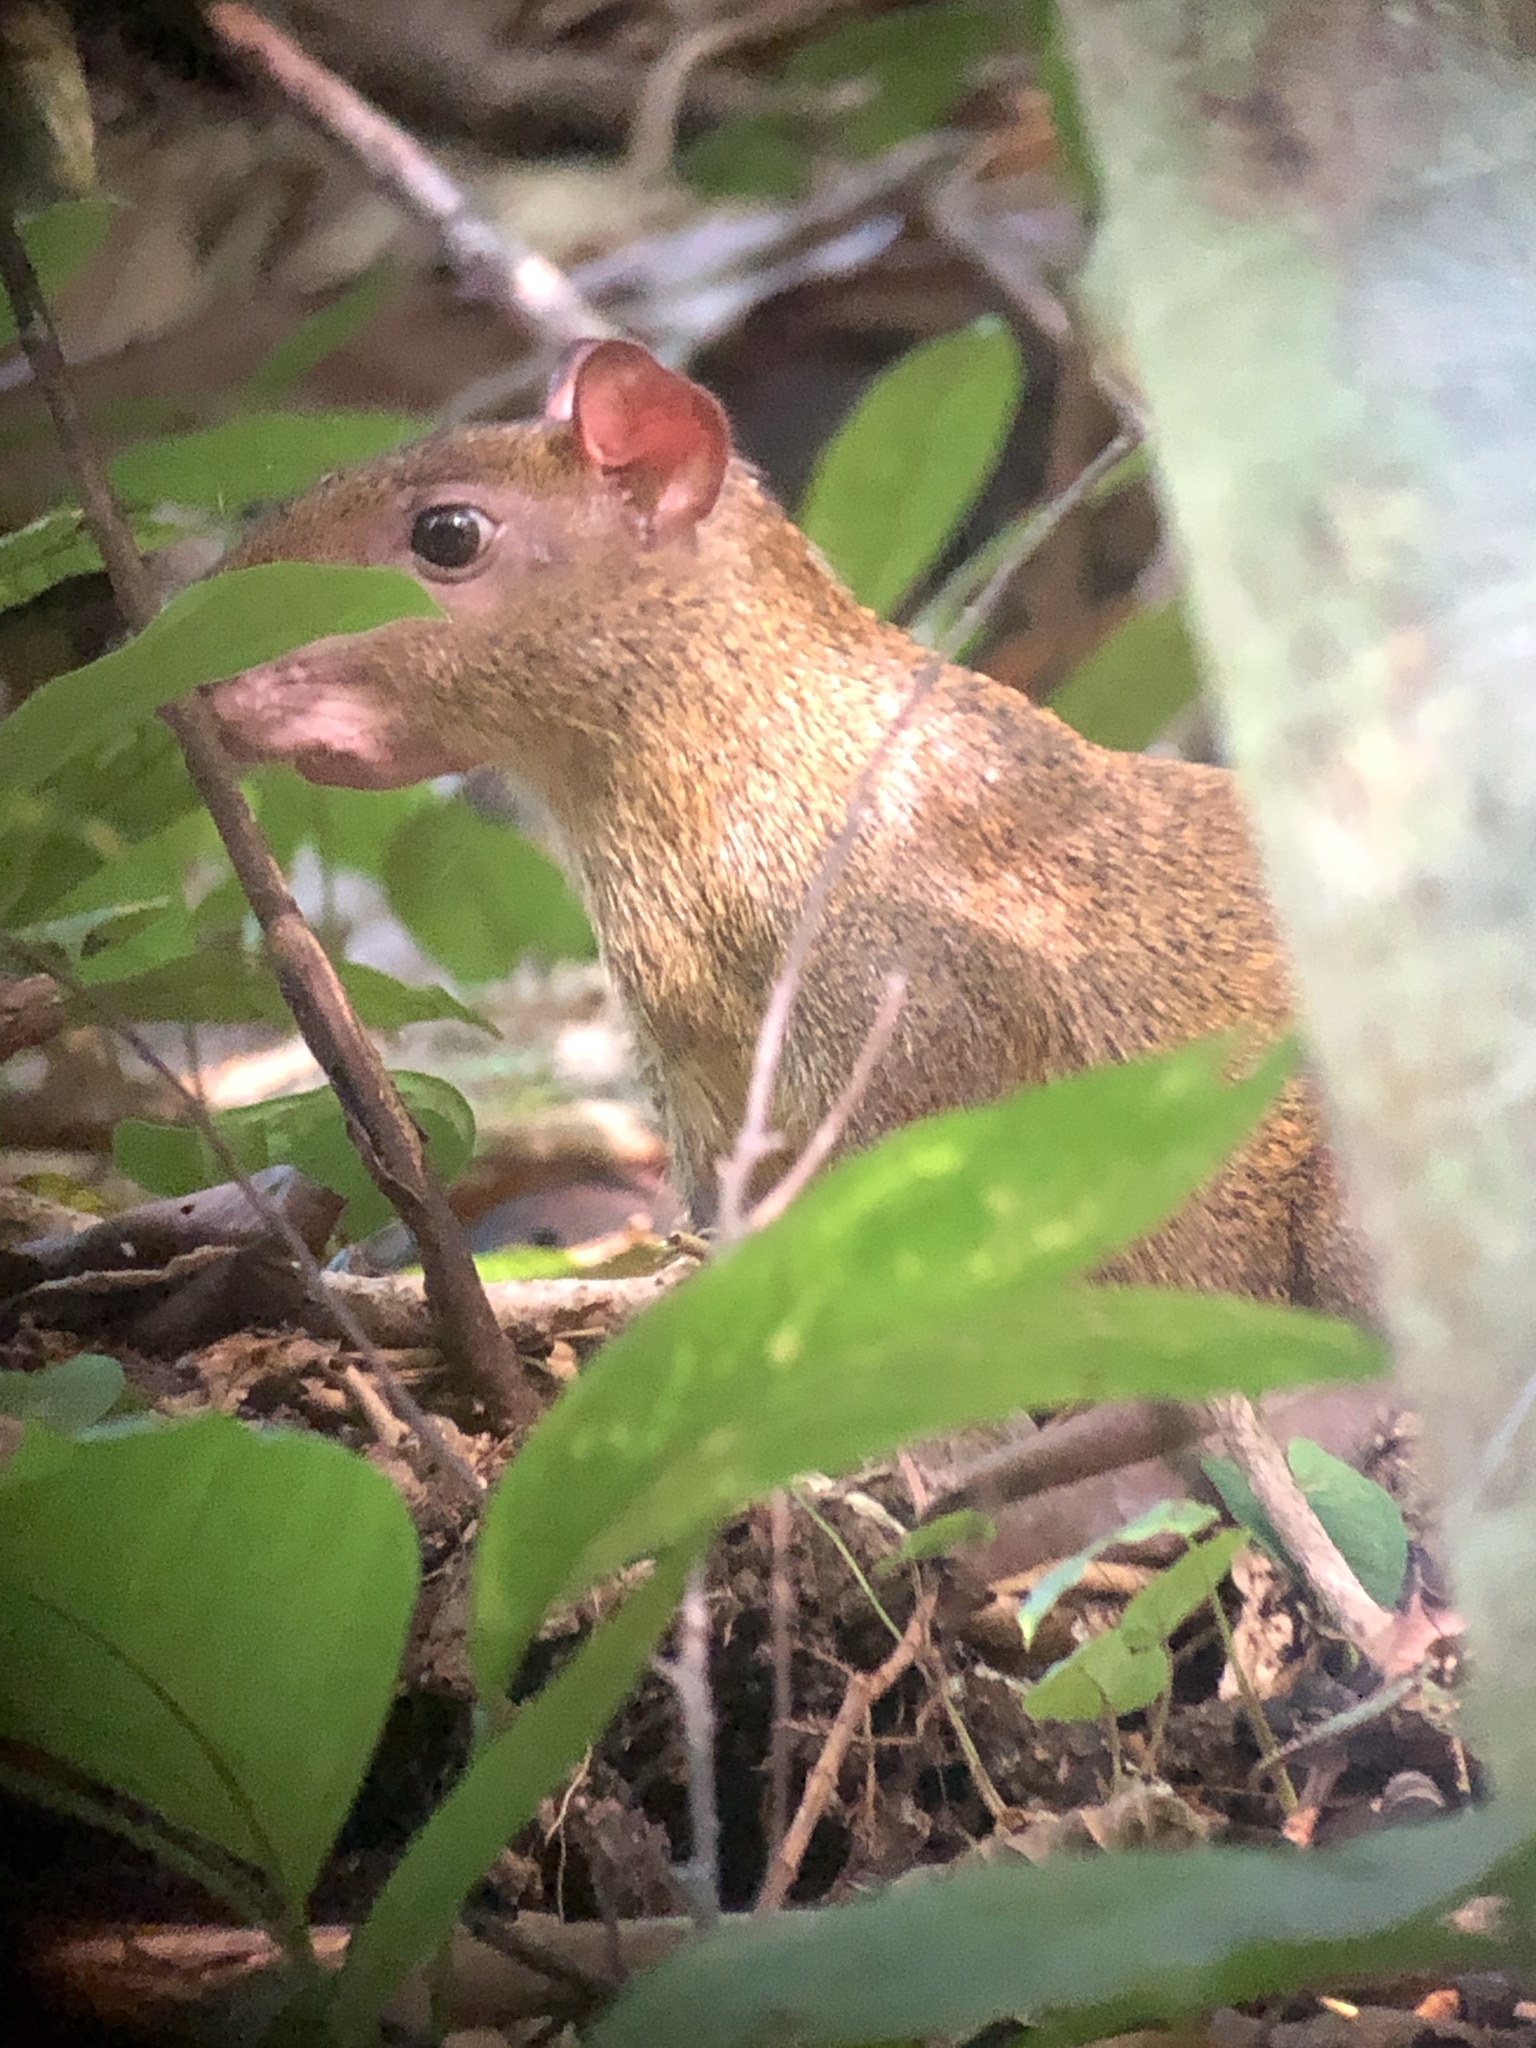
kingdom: Animalia
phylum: Chordata
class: Mammalia
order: Rodentia
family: Dasyproctidae
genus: Dasyprocta
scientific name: Dasyprocta punctata
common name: Central american agouti
